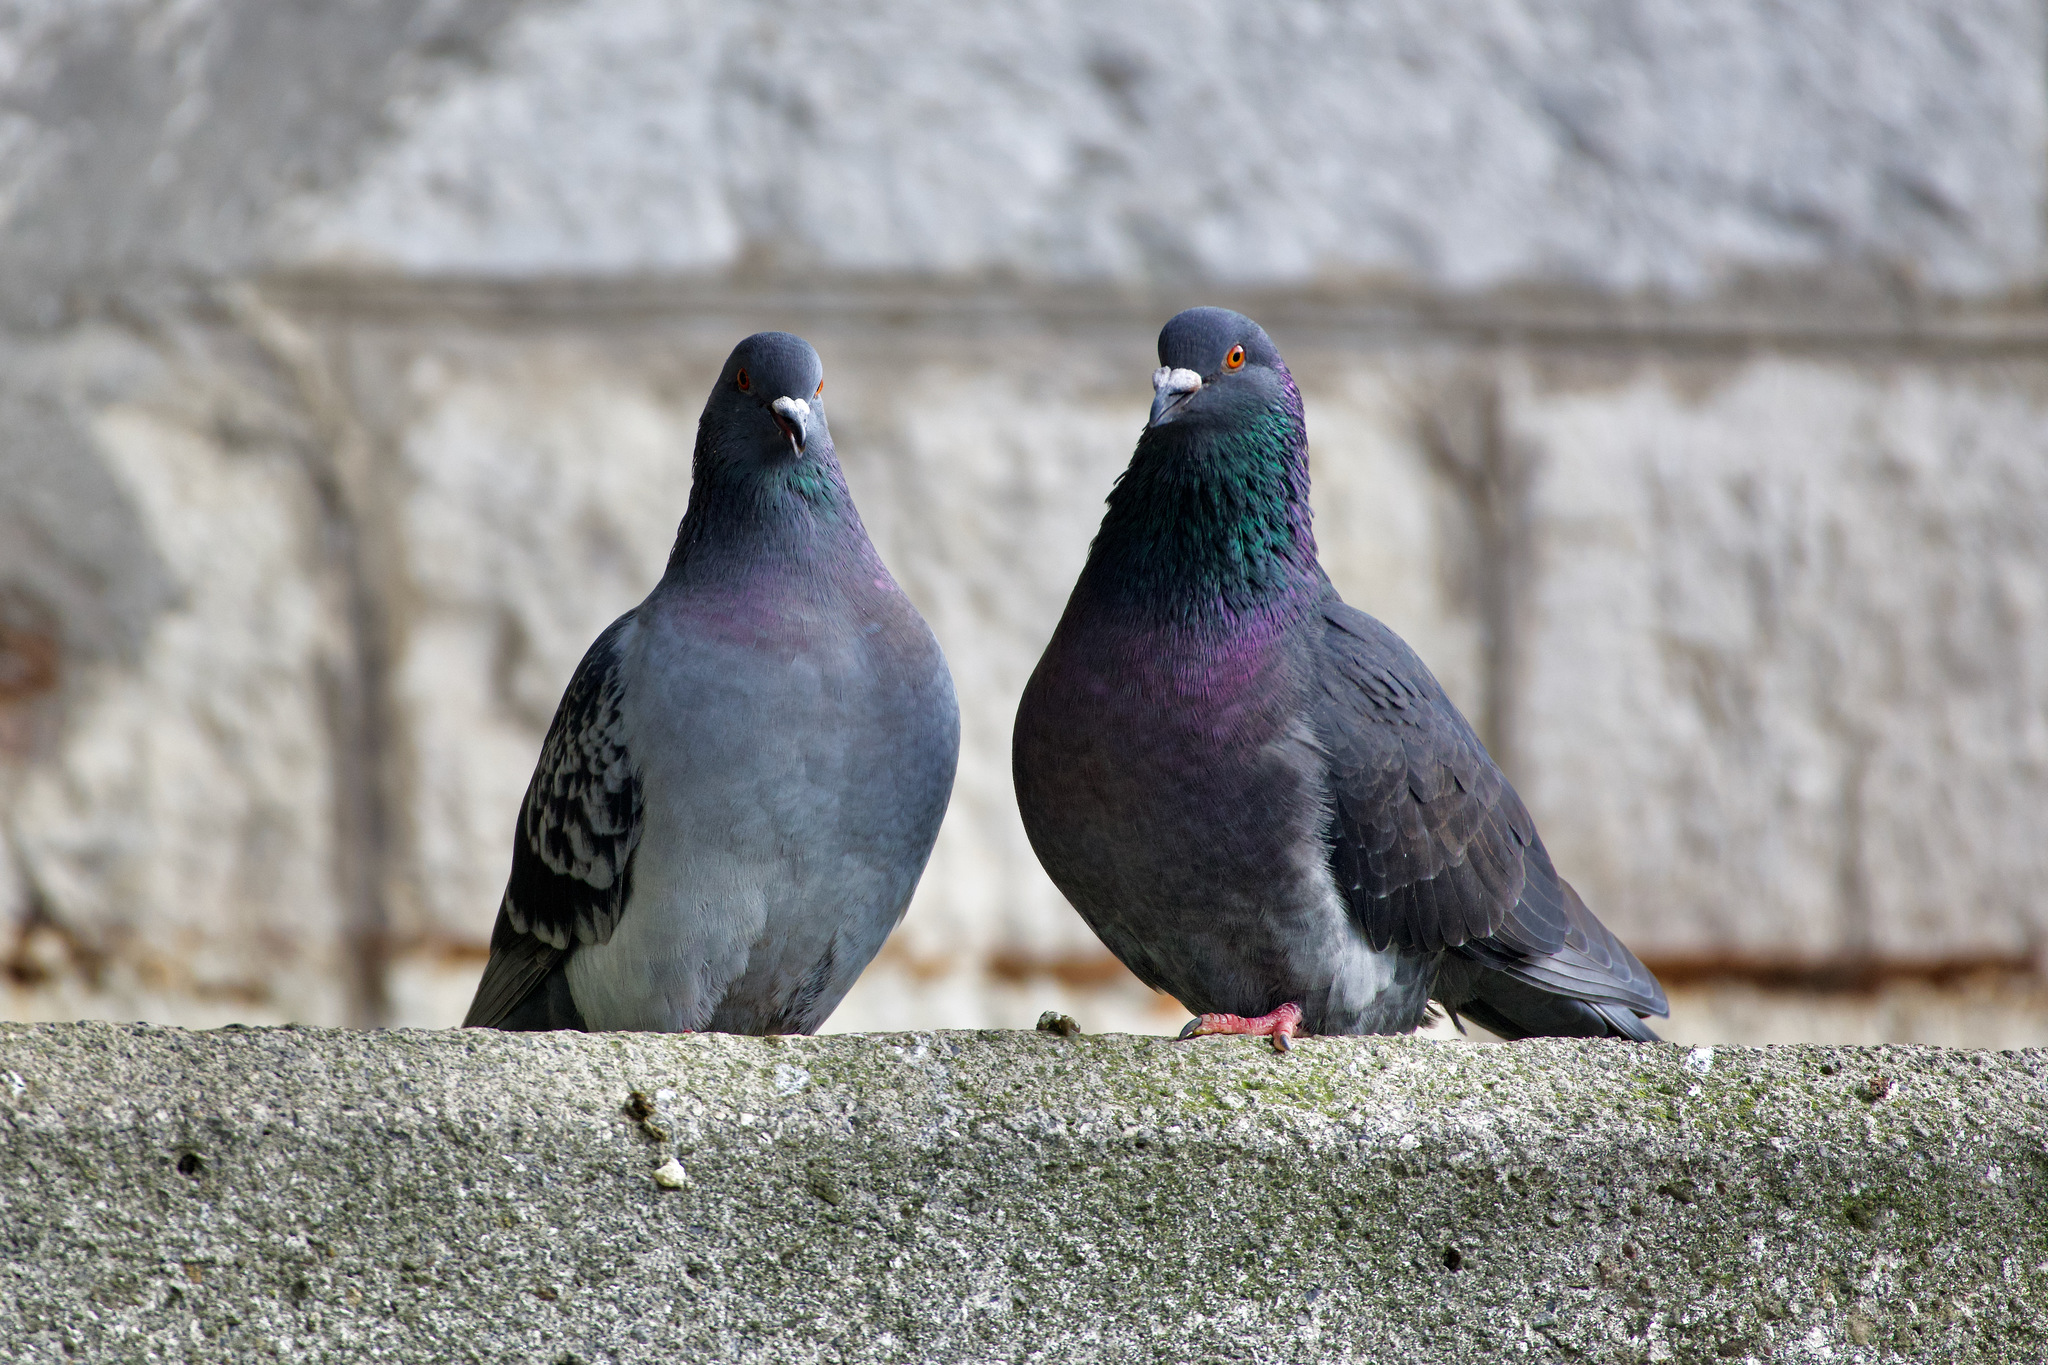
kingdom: Animalia
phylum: Chordata
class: Aves
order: Columbiformes
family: Columbidae
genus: Columba
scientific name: Columba livia
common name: Rock pigeon
